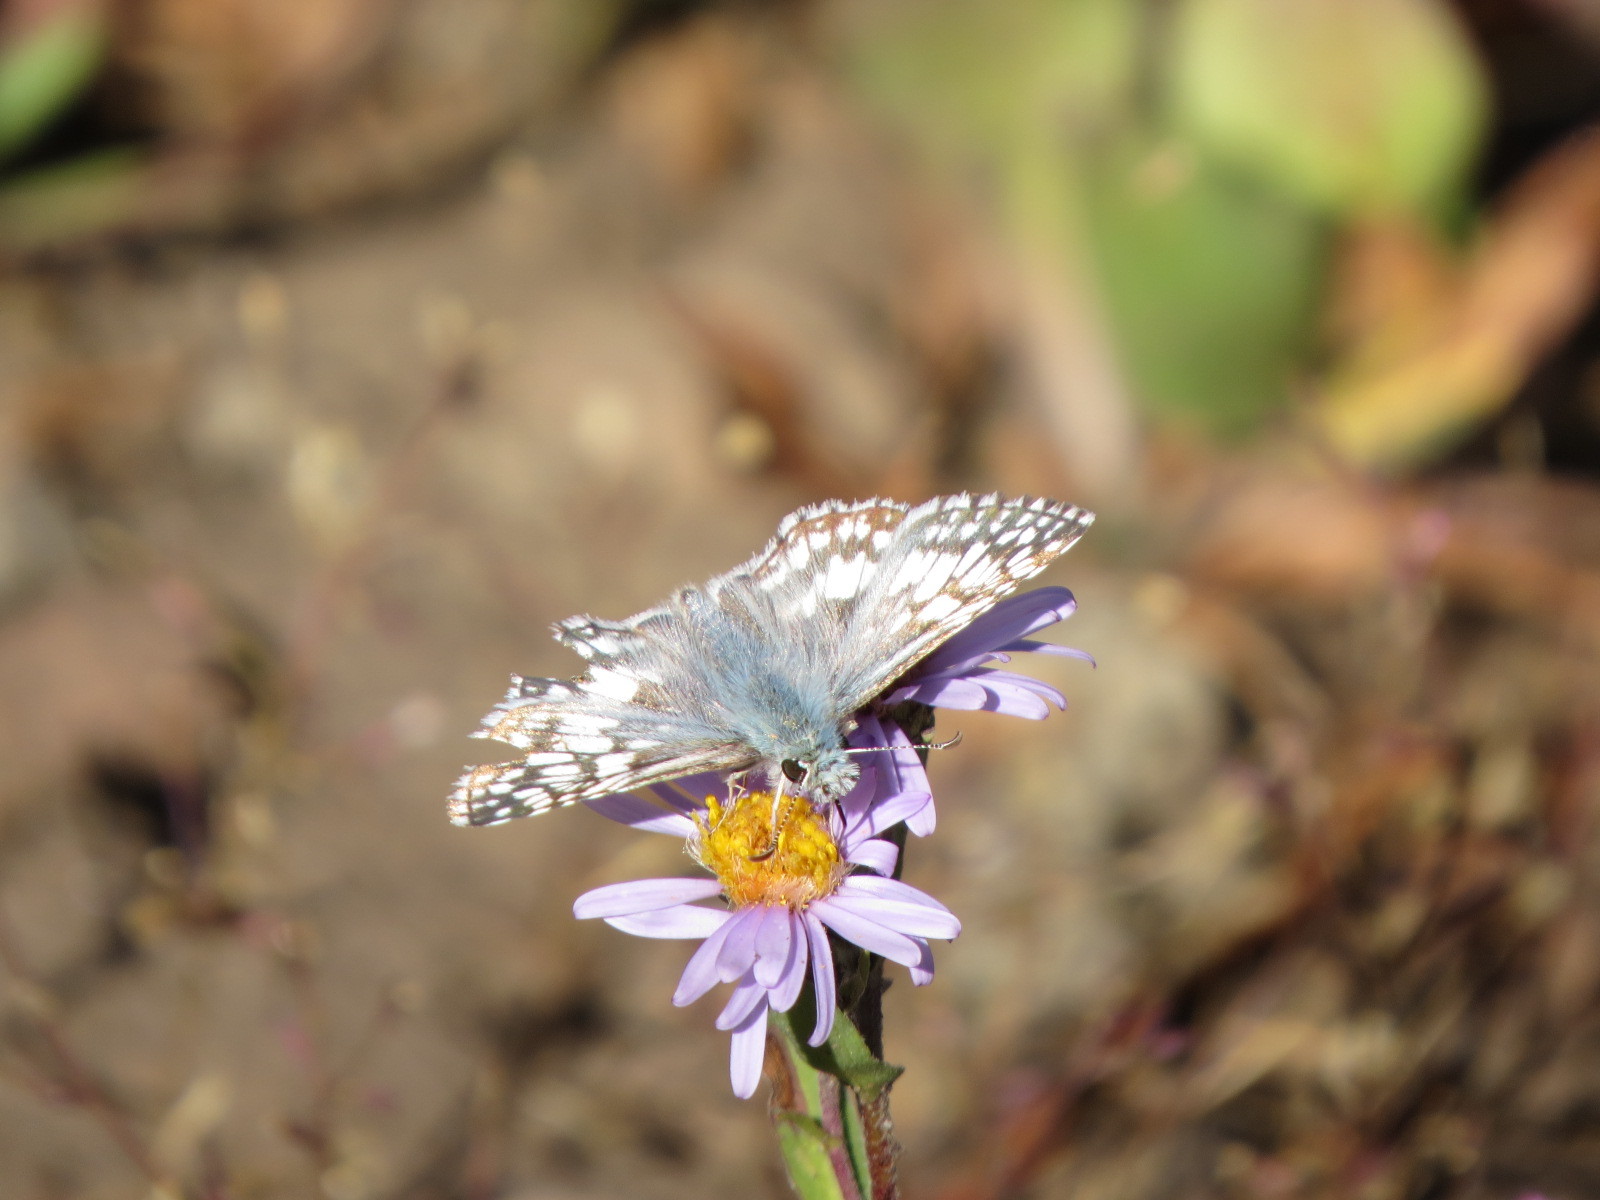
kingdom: Animalia
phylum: Arthropoda
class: Insecta
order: Lepidoptera
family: Hesperiidae
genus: Burnsius
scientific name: Burnsius communis
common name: Common checkered-skipper
